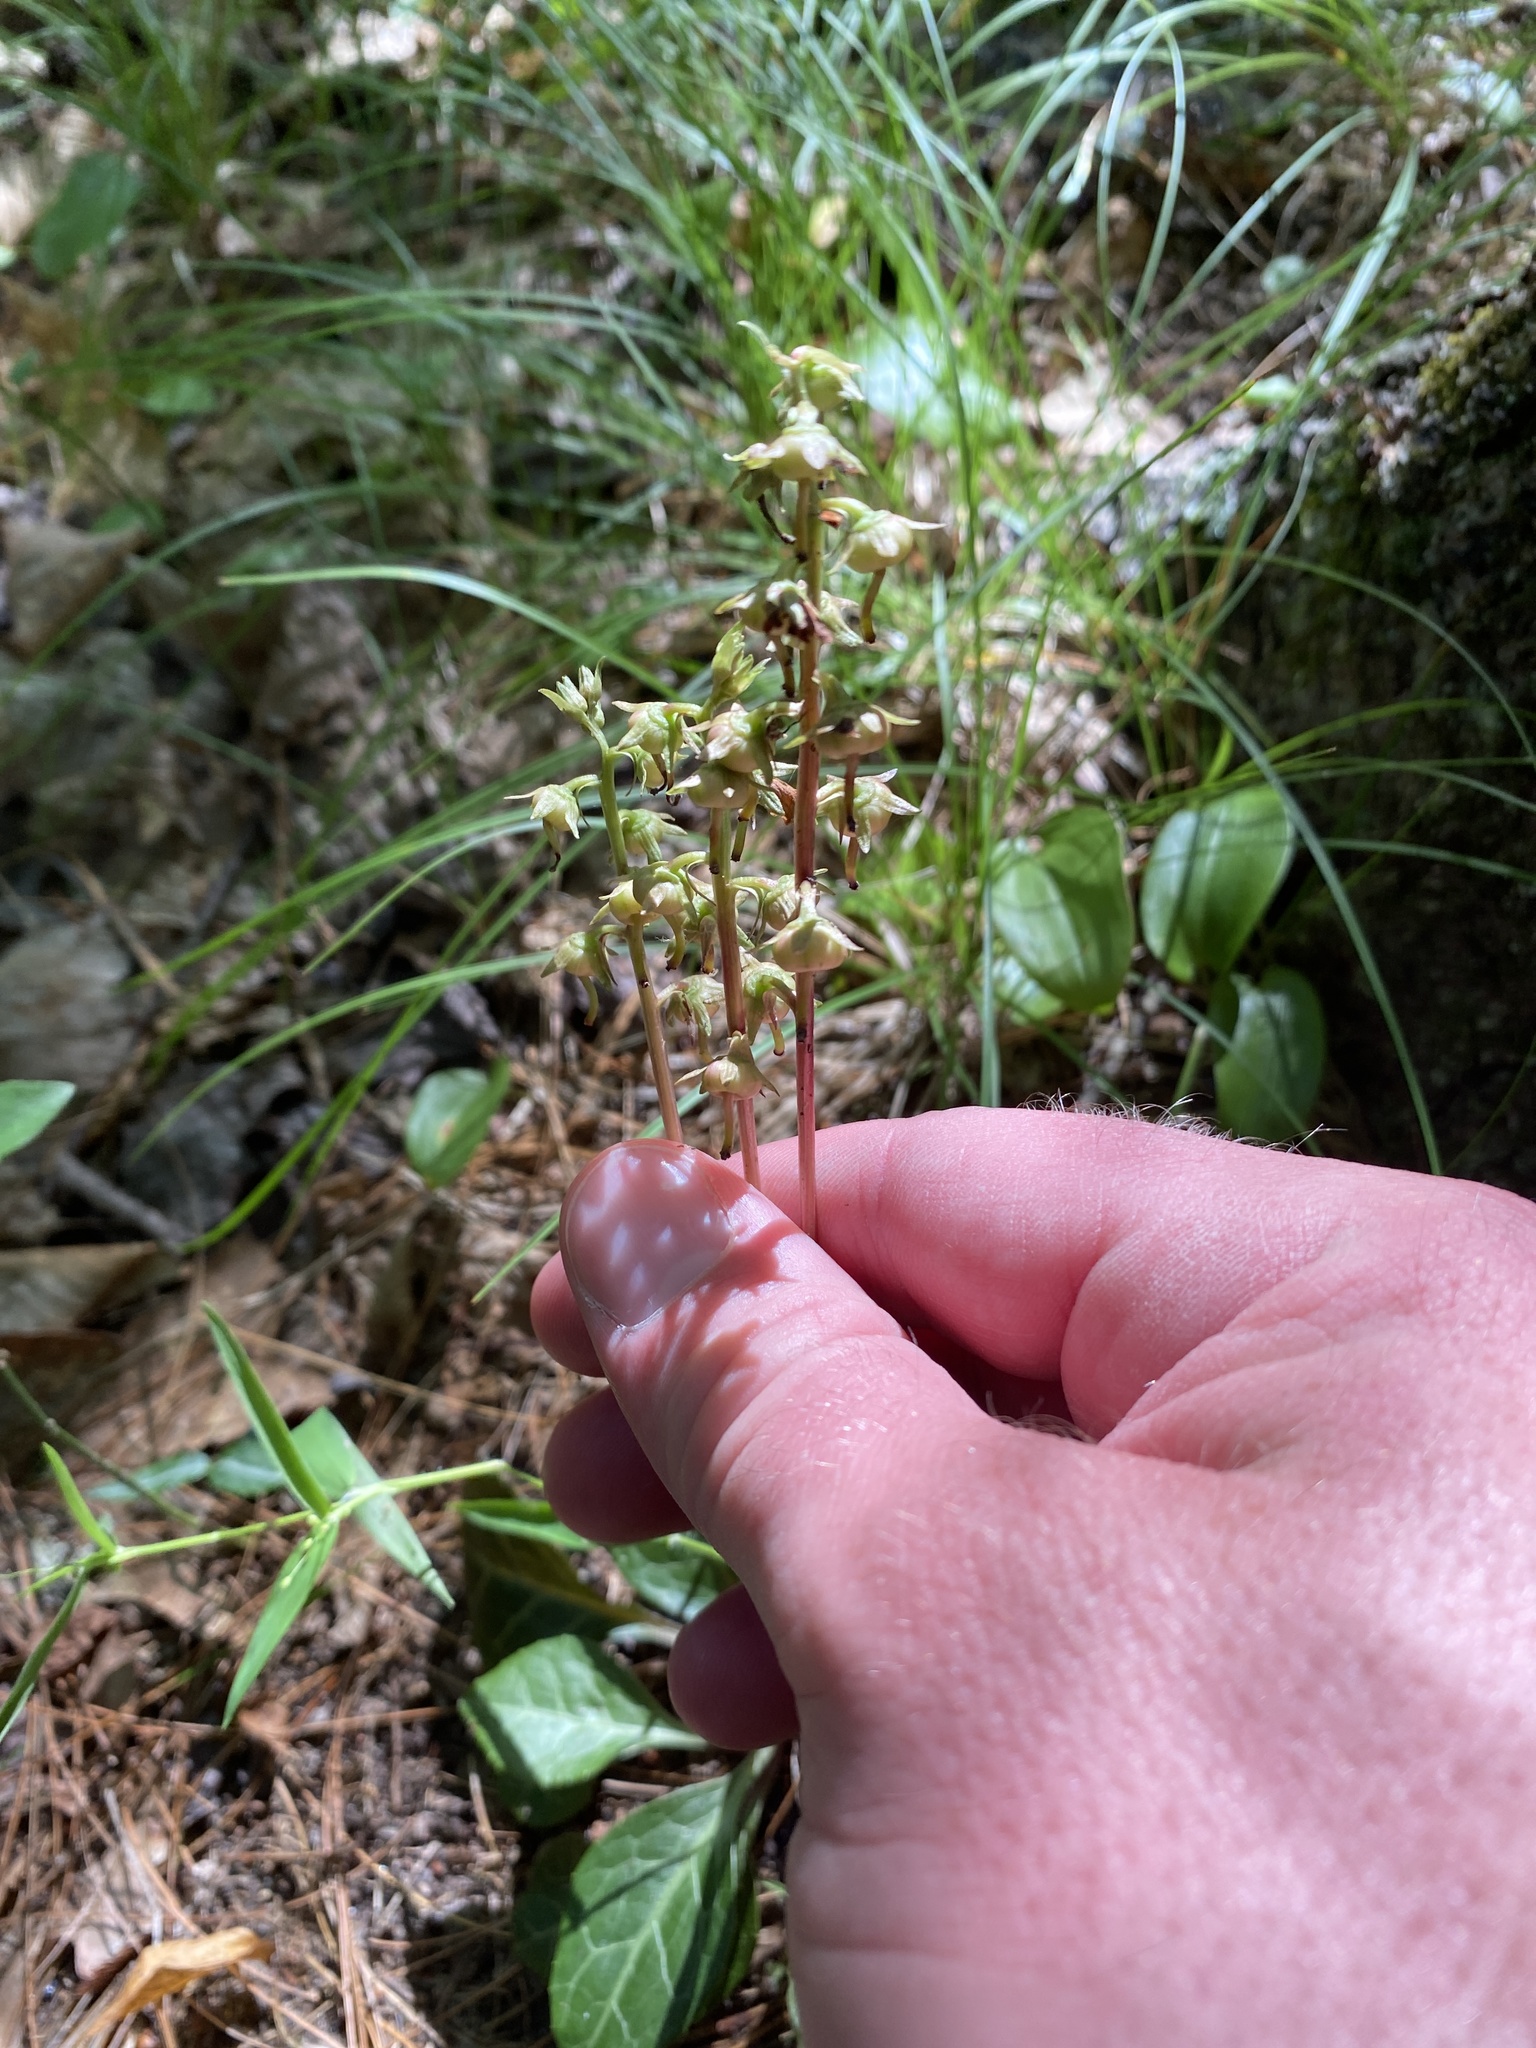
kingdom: Plantae
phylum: Tracheophyta
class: Magnoliopsida
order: Ericales
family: Ericaceae
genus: Pyrola
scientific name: Pyrola americana
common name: American wintergreen
